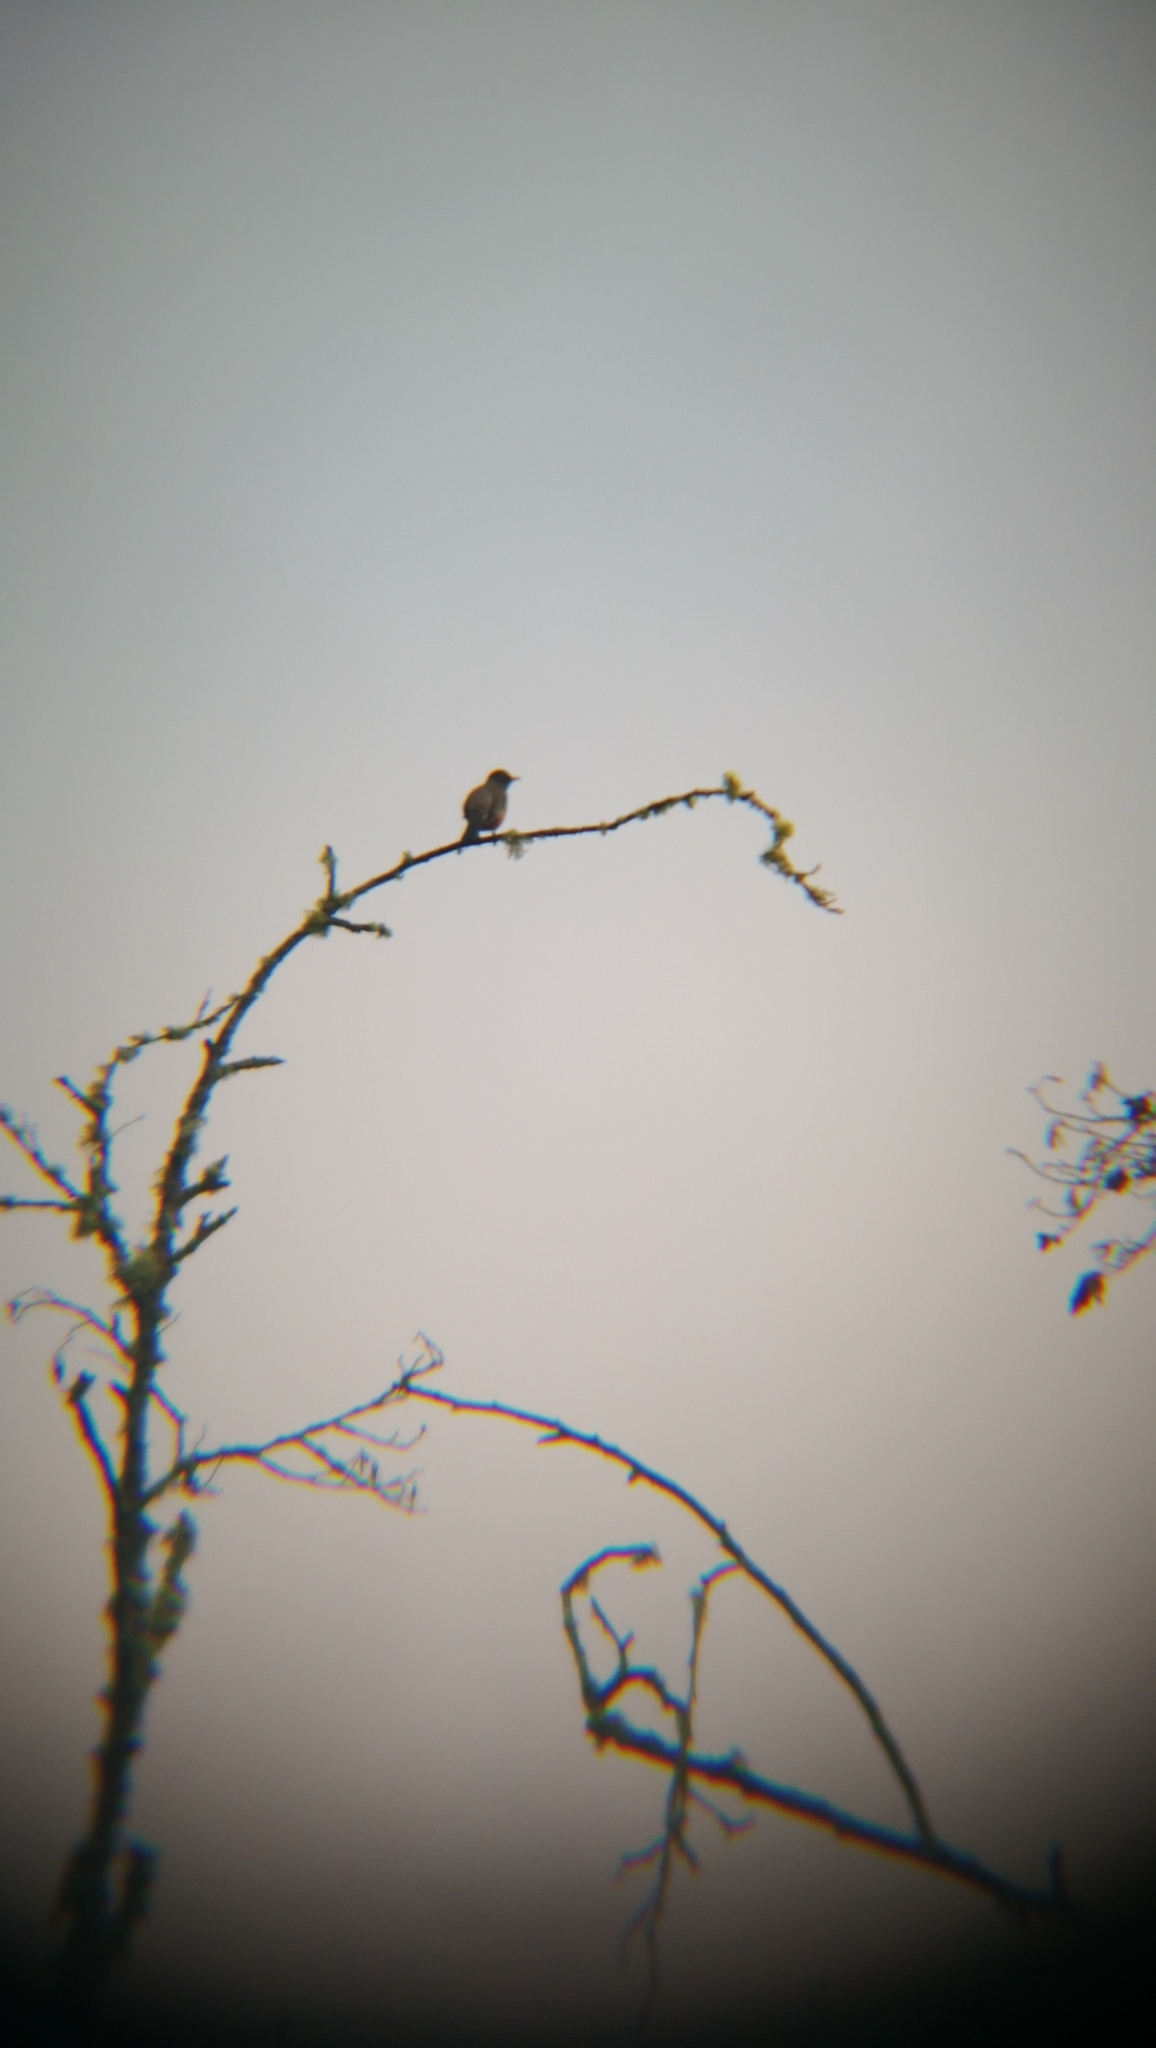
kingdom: Animalia
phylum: Chordata
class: Aves
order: Passeriformes
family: Turdidae
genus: Turdus
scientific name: Turdus migratorius
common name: American robin
